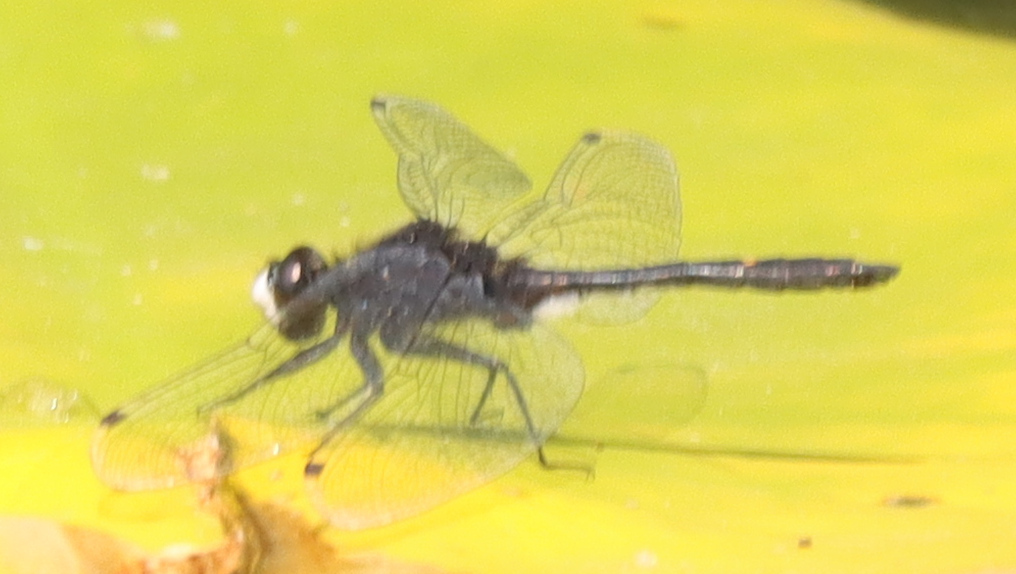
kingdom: Animalia
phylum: Arthropoda
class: Insecta
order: Odonata
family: Libellulidae
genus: Leucorrhinia
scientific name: Leucorrhinia intacta
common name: Dot-tailed whiteface
